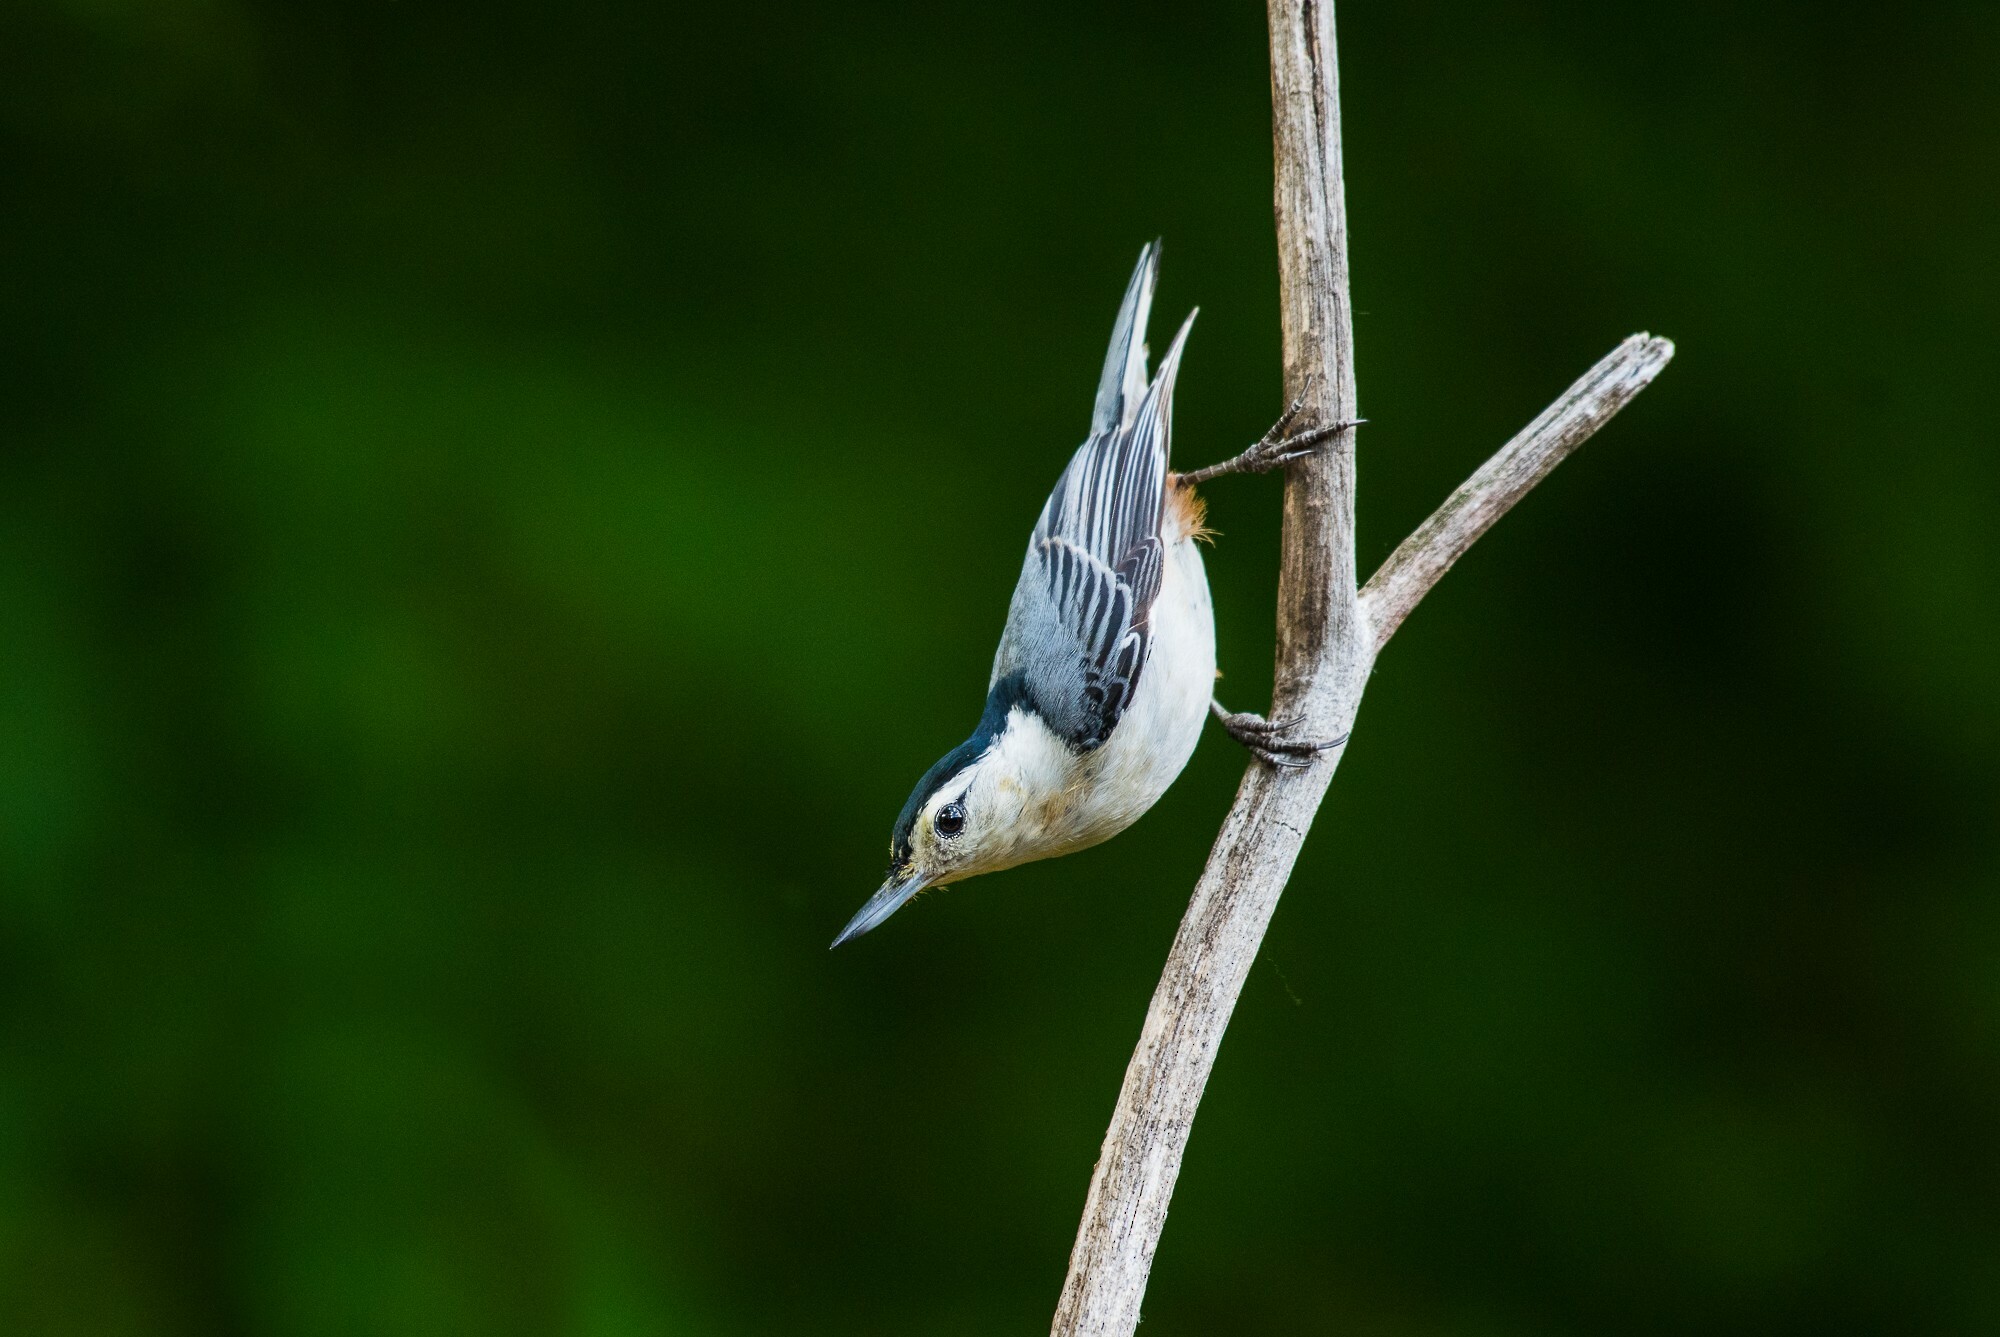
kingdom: Animalia
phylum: Chordata
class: Aves
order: Passeriformes
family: Sittidae
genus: Sitta
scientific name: Sitta carolinensis
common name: White-breasted nuthatch
